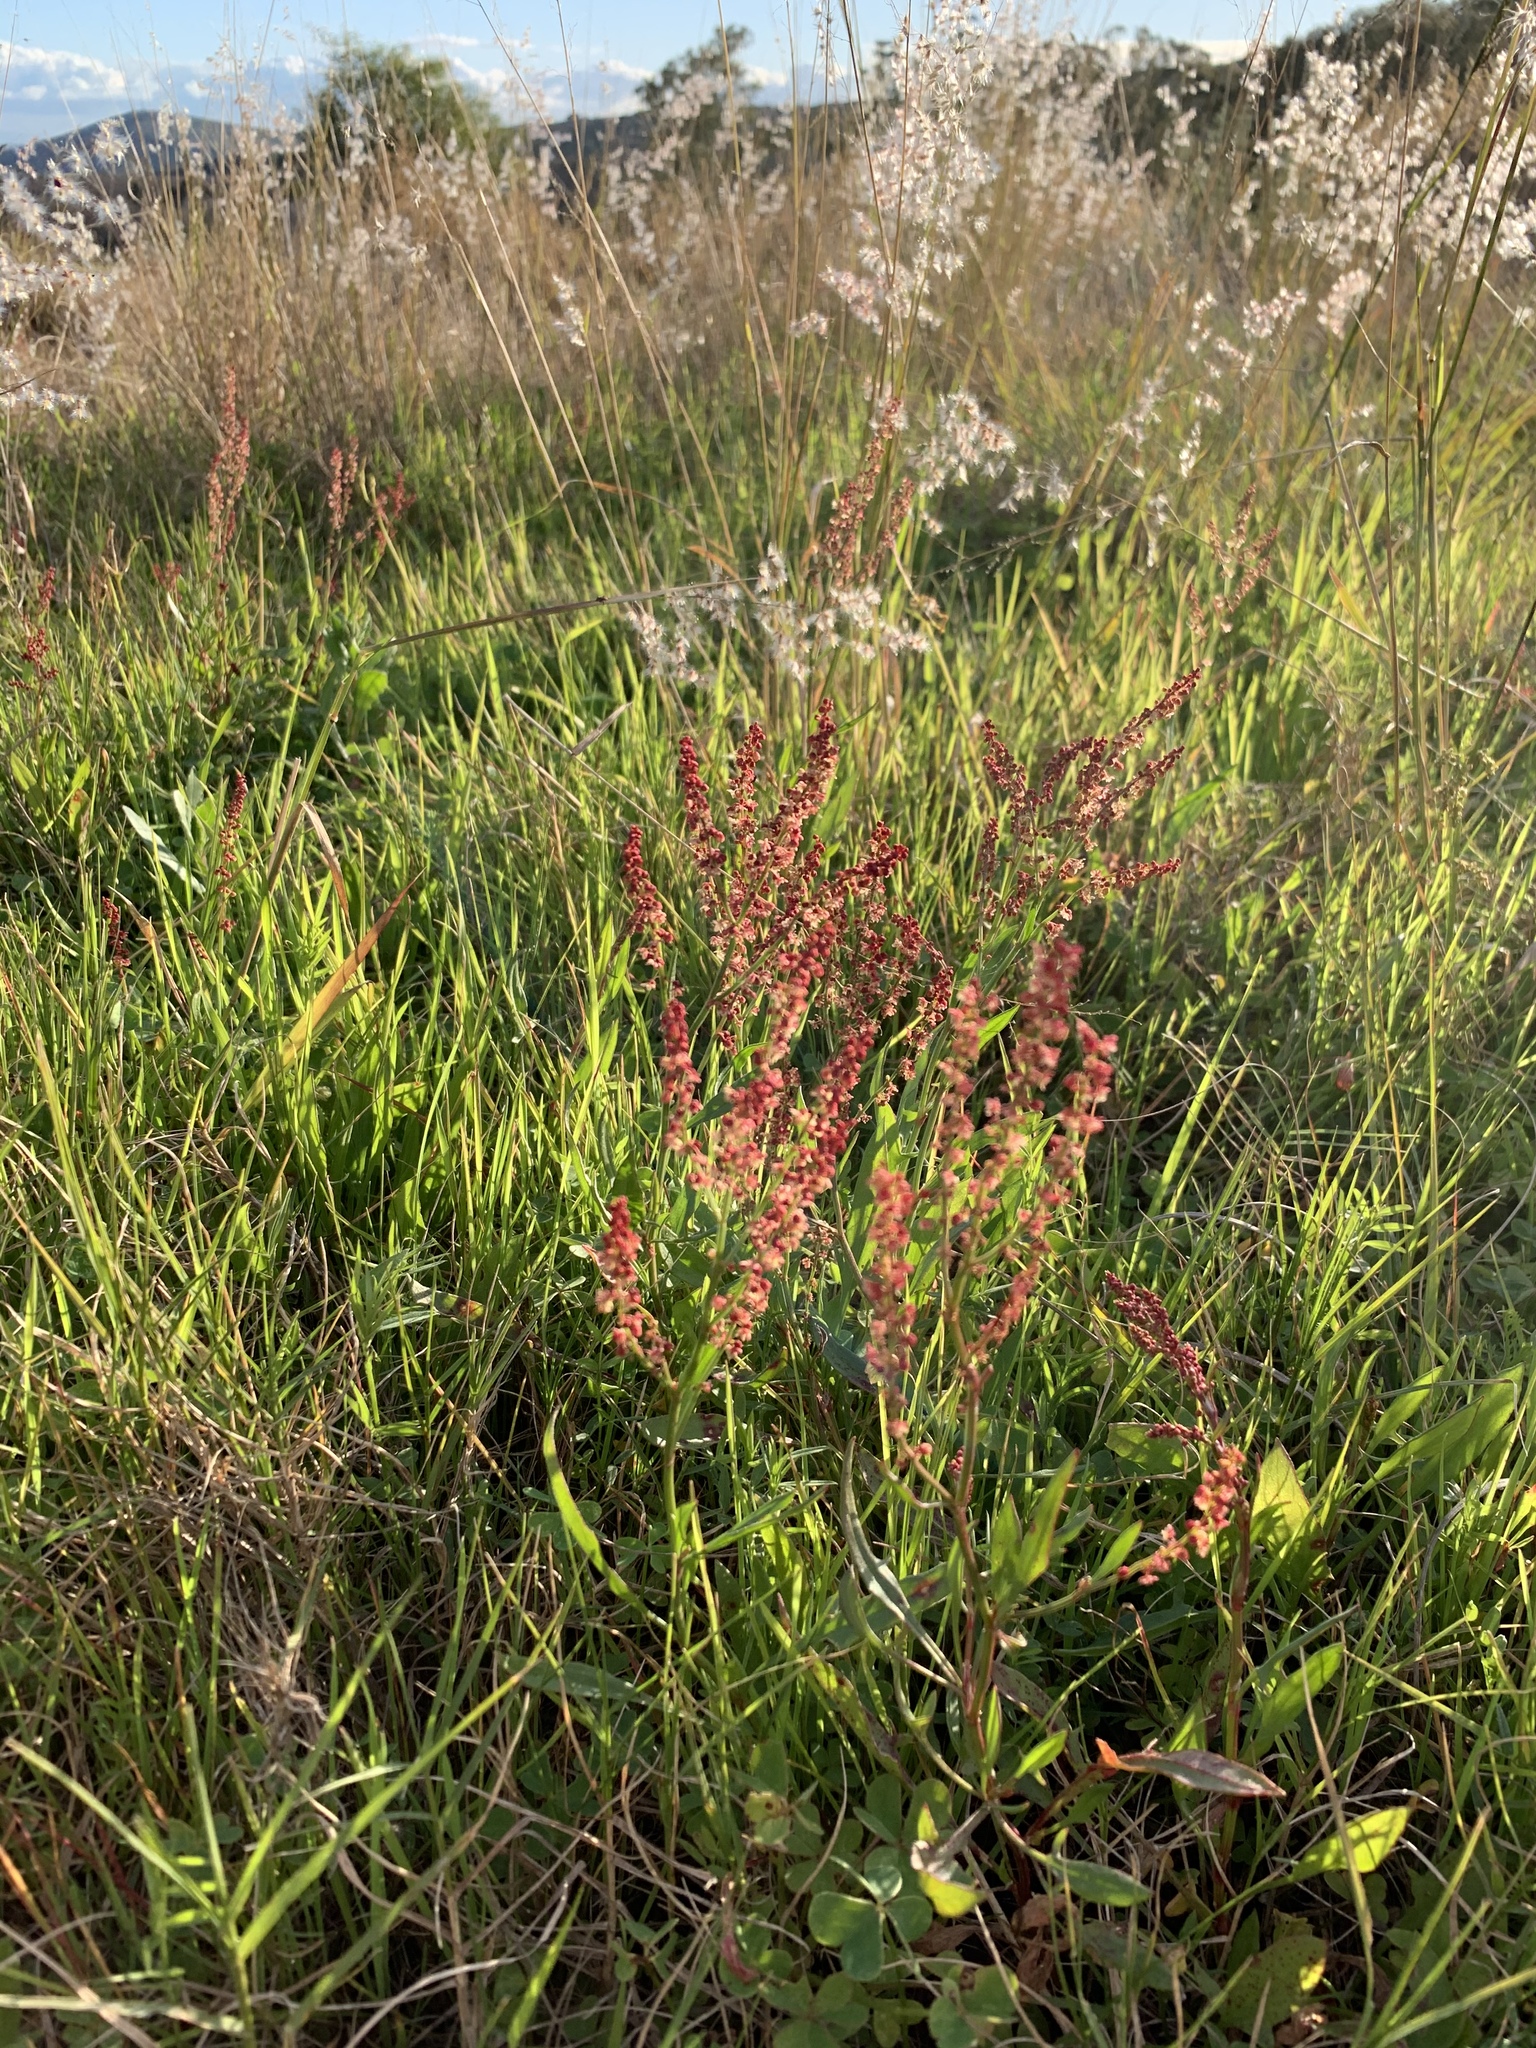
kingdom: Plantae
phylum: Tracheophyta
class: Magnoliopsida
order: Caryophyllales
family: Polygonaceae
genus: Rumex
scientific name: Rumex acetosella
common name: Common sheep sorrel
